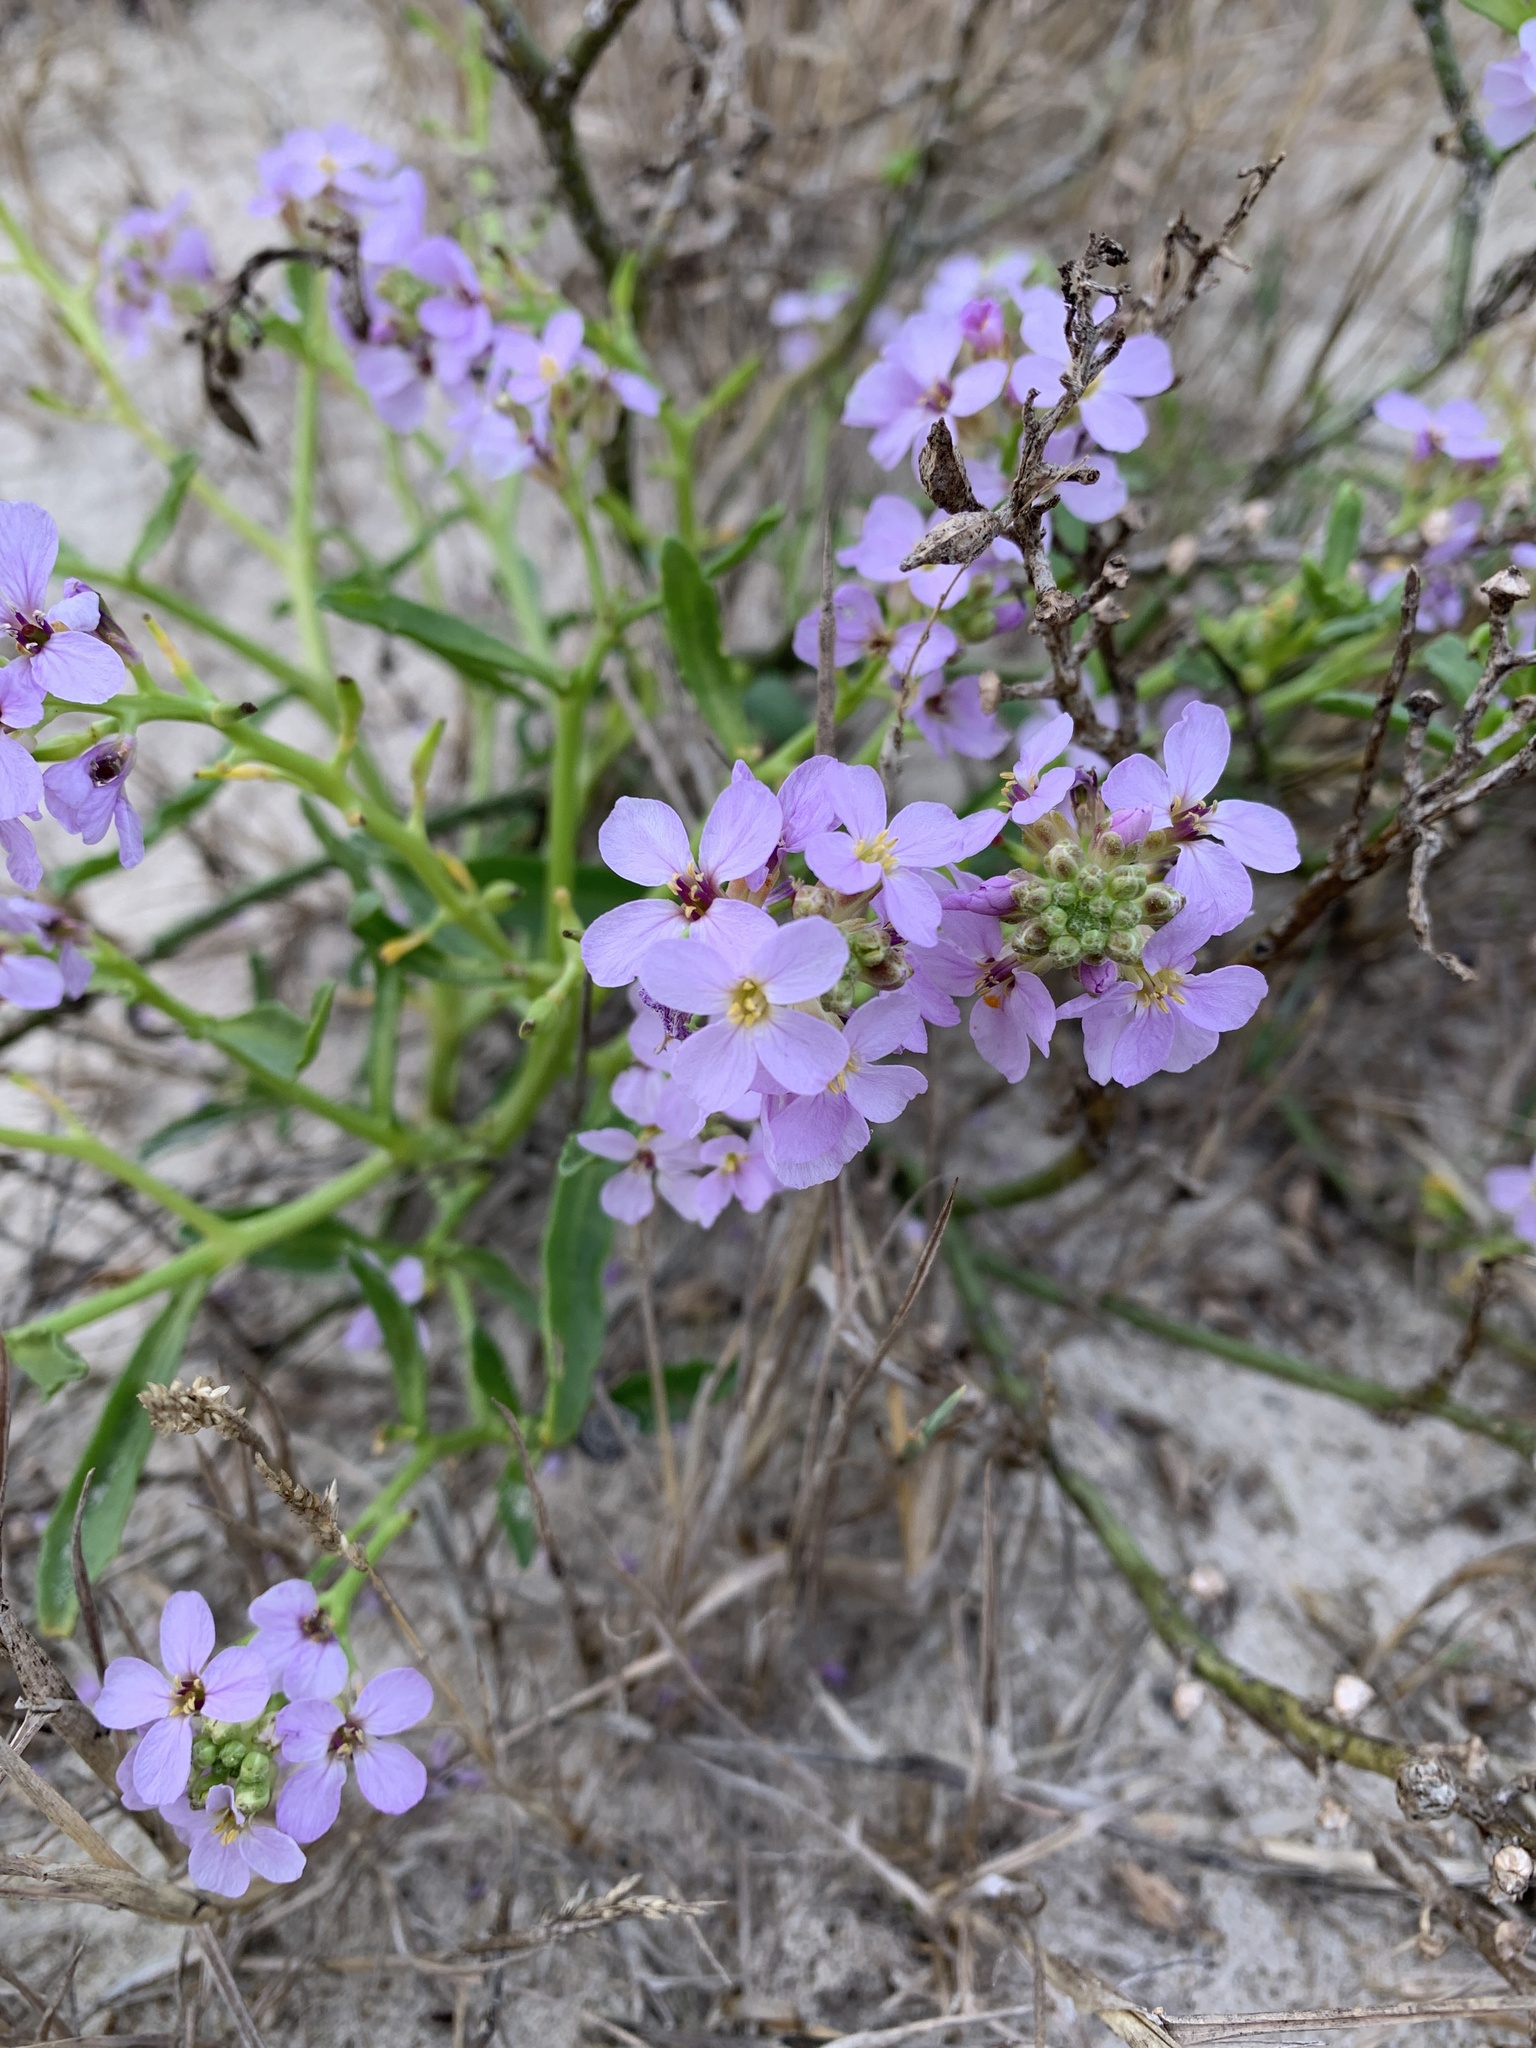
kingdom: Plantae
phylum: Tracheophyta
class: Magnoliopsida
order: Brassicales
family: Brassicaceae
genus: Cakile
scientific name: Cakile maritima
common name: Sea rocket
